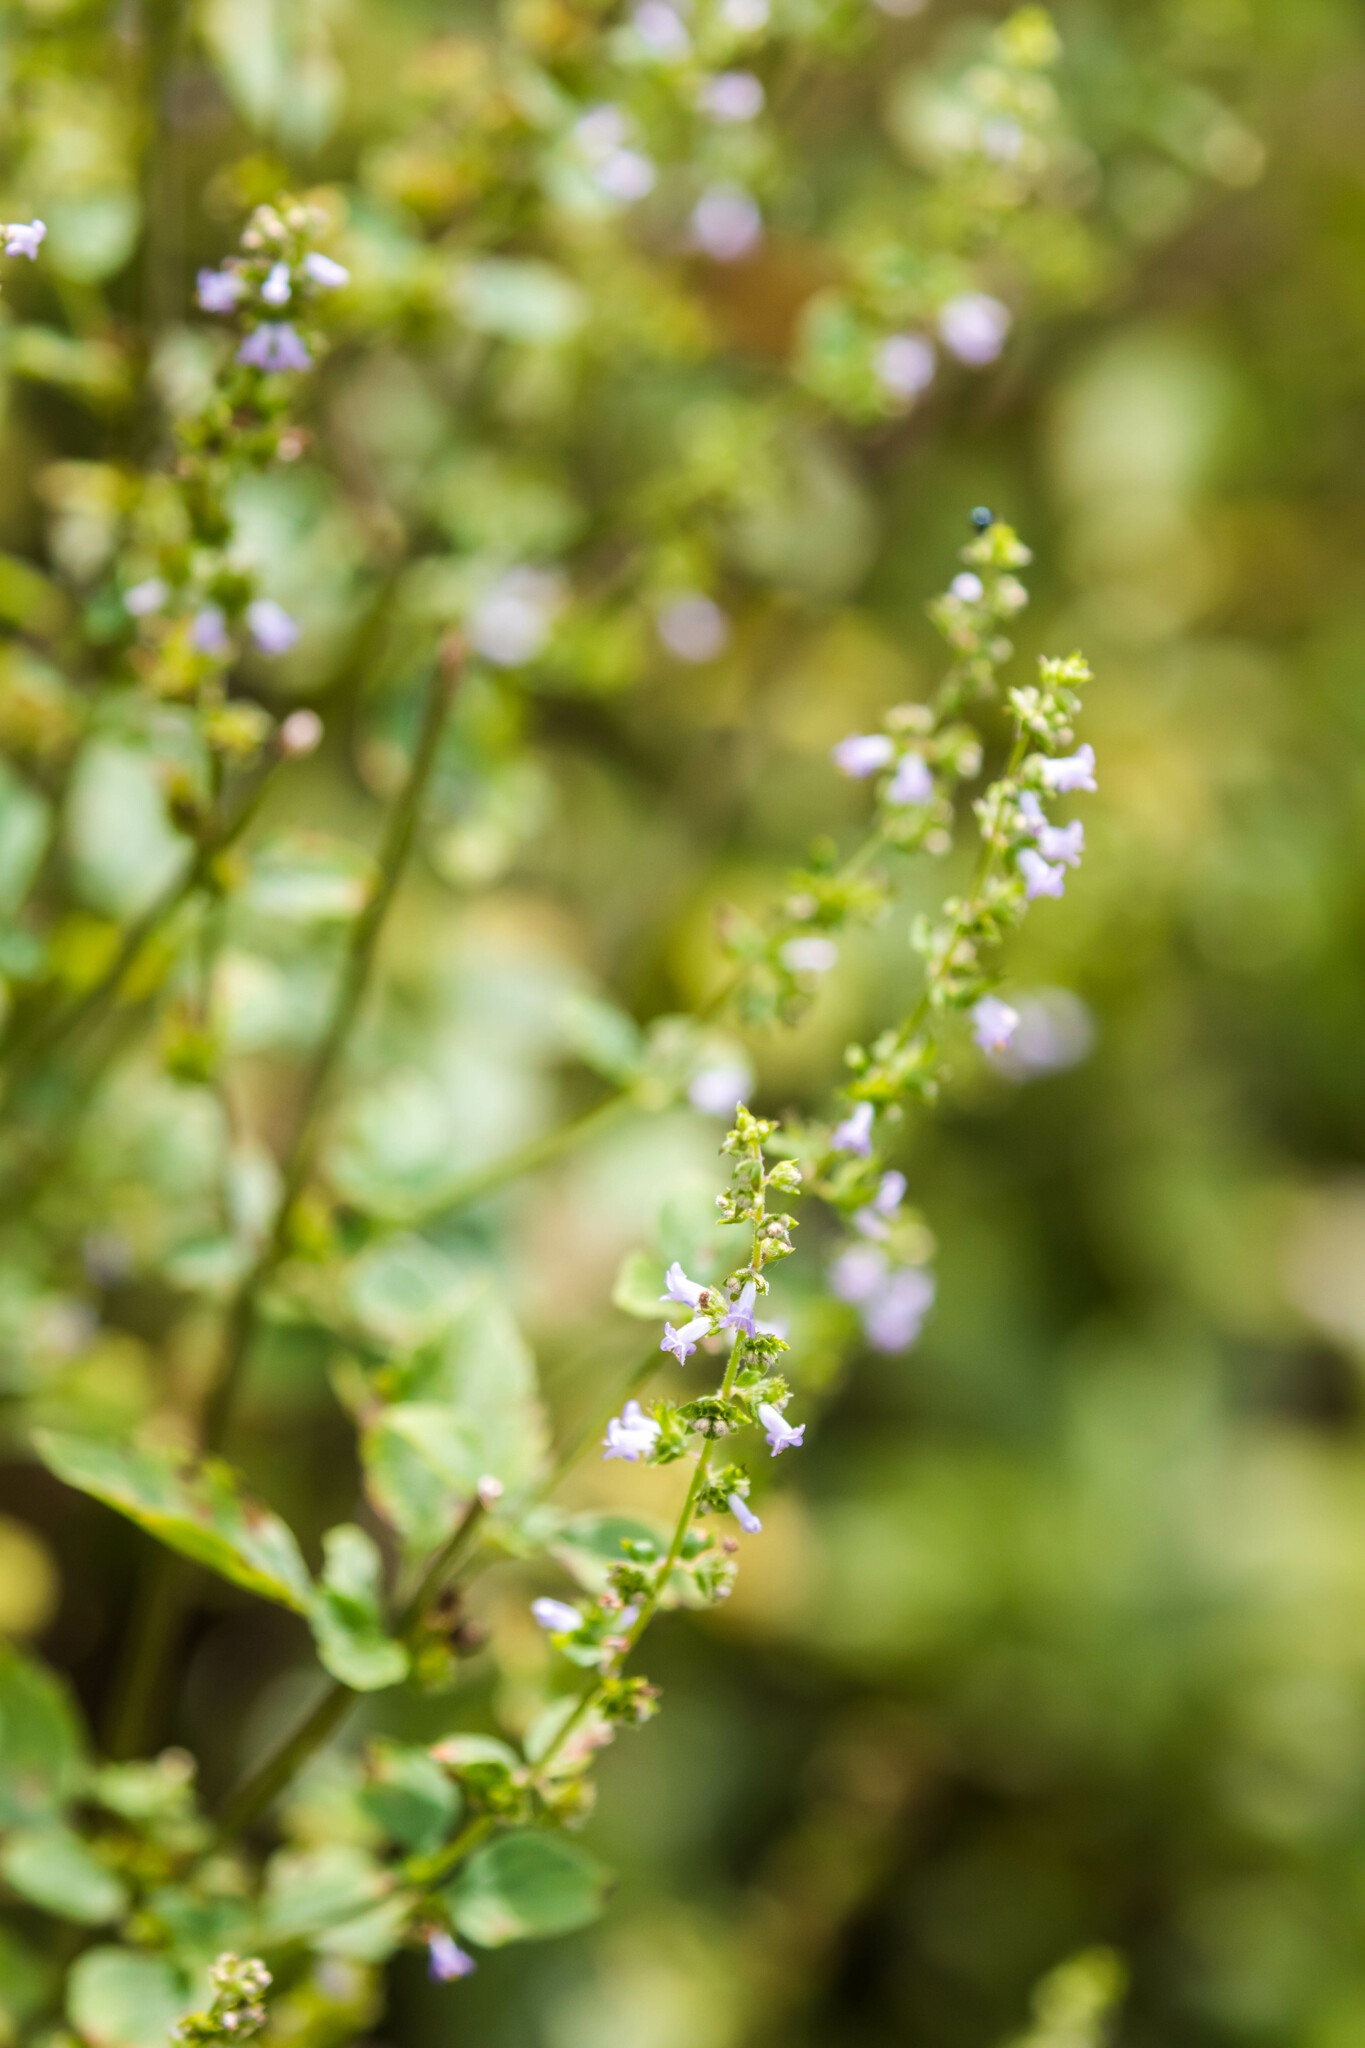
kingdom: Plantae
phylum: Tracheophyta
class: Magnoliopsida
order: Lamiales
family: Lamiaceae
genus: Cantinoa
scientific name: Cantinoa mutabilis
